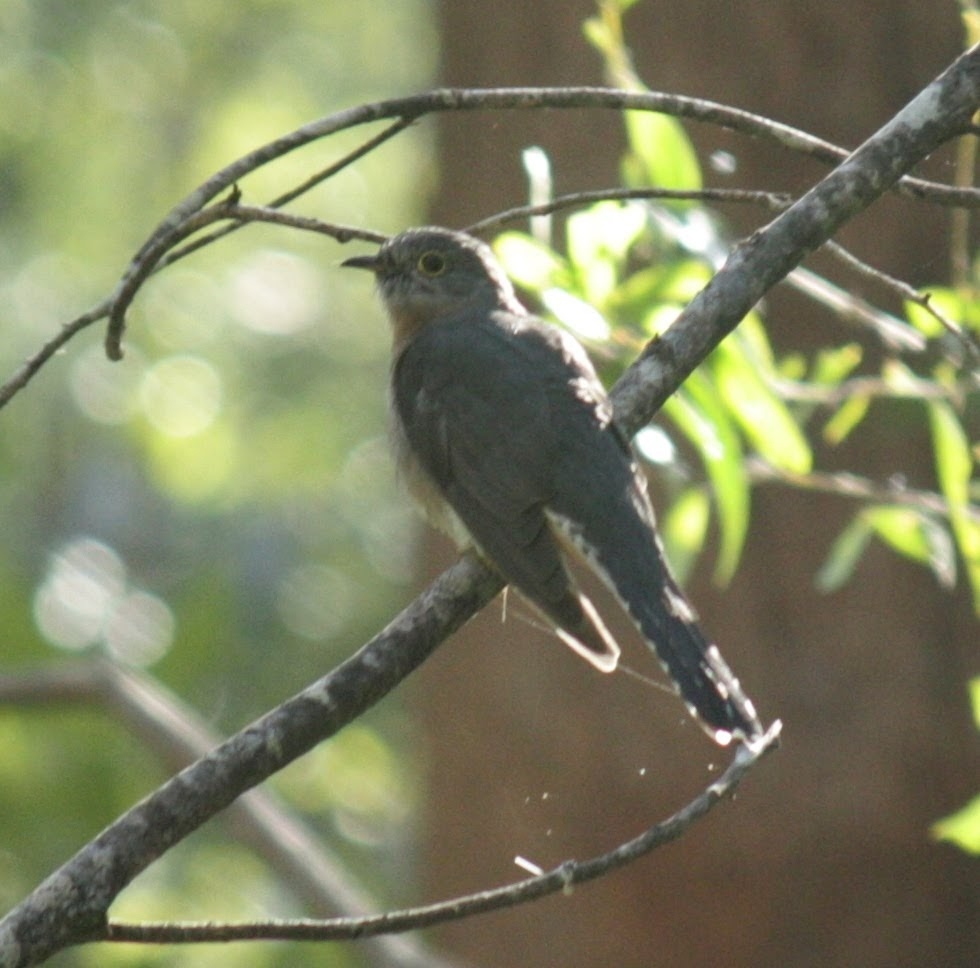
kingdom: Animalia
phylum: Chordata
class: Aves
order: Cuculiformes
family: Cuculidae
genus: Cacomantis
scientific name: Cacomantis flabelliformis
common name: Fan-tailed cuckoo
